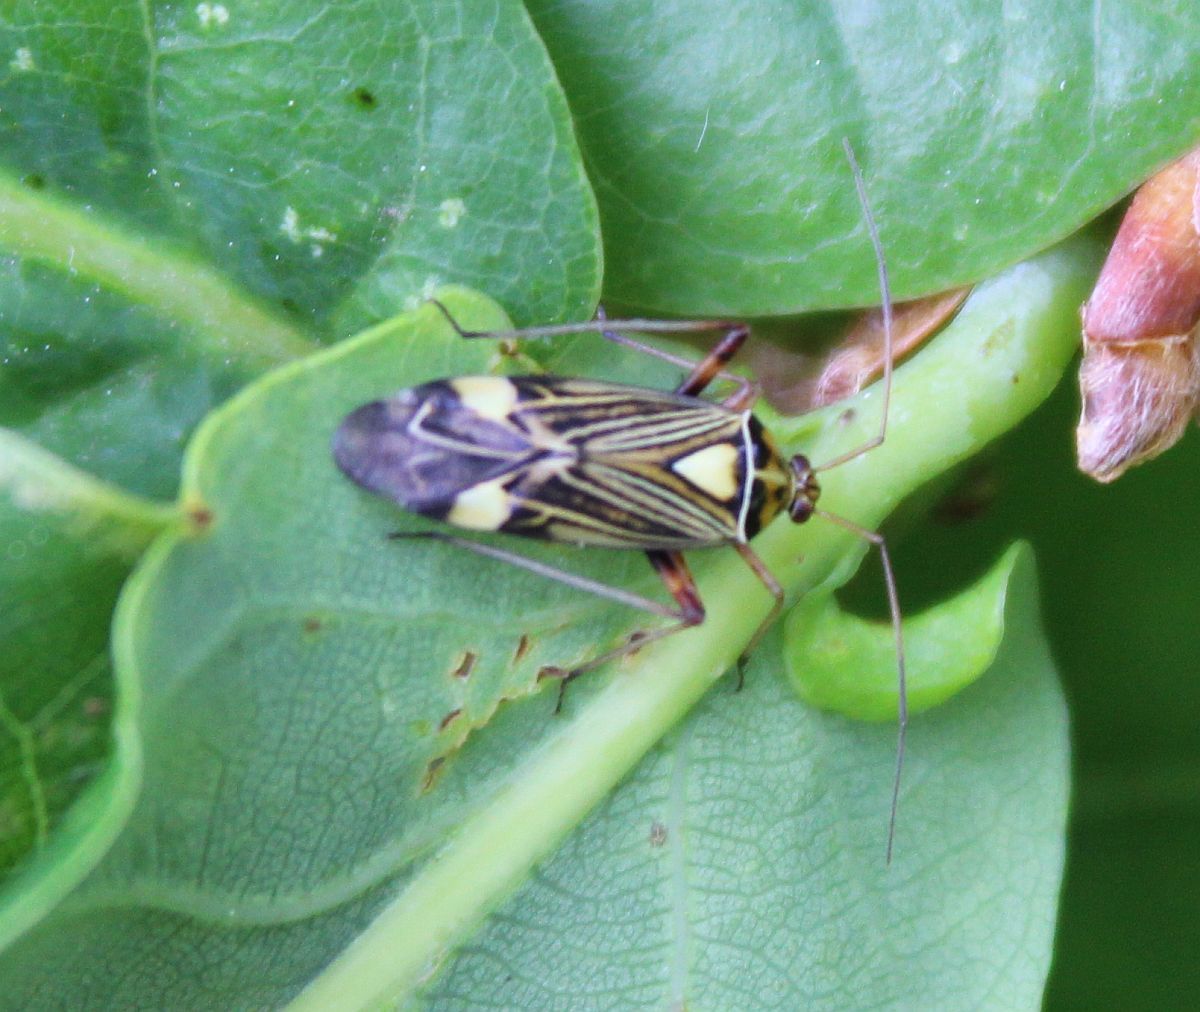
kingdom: Animalia
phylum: Arthropoda
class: Insecta
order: Hemiptera
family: Miridae
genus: Rhabdomiris
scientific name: Rhabdomiris striatellus
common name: Plant bug
